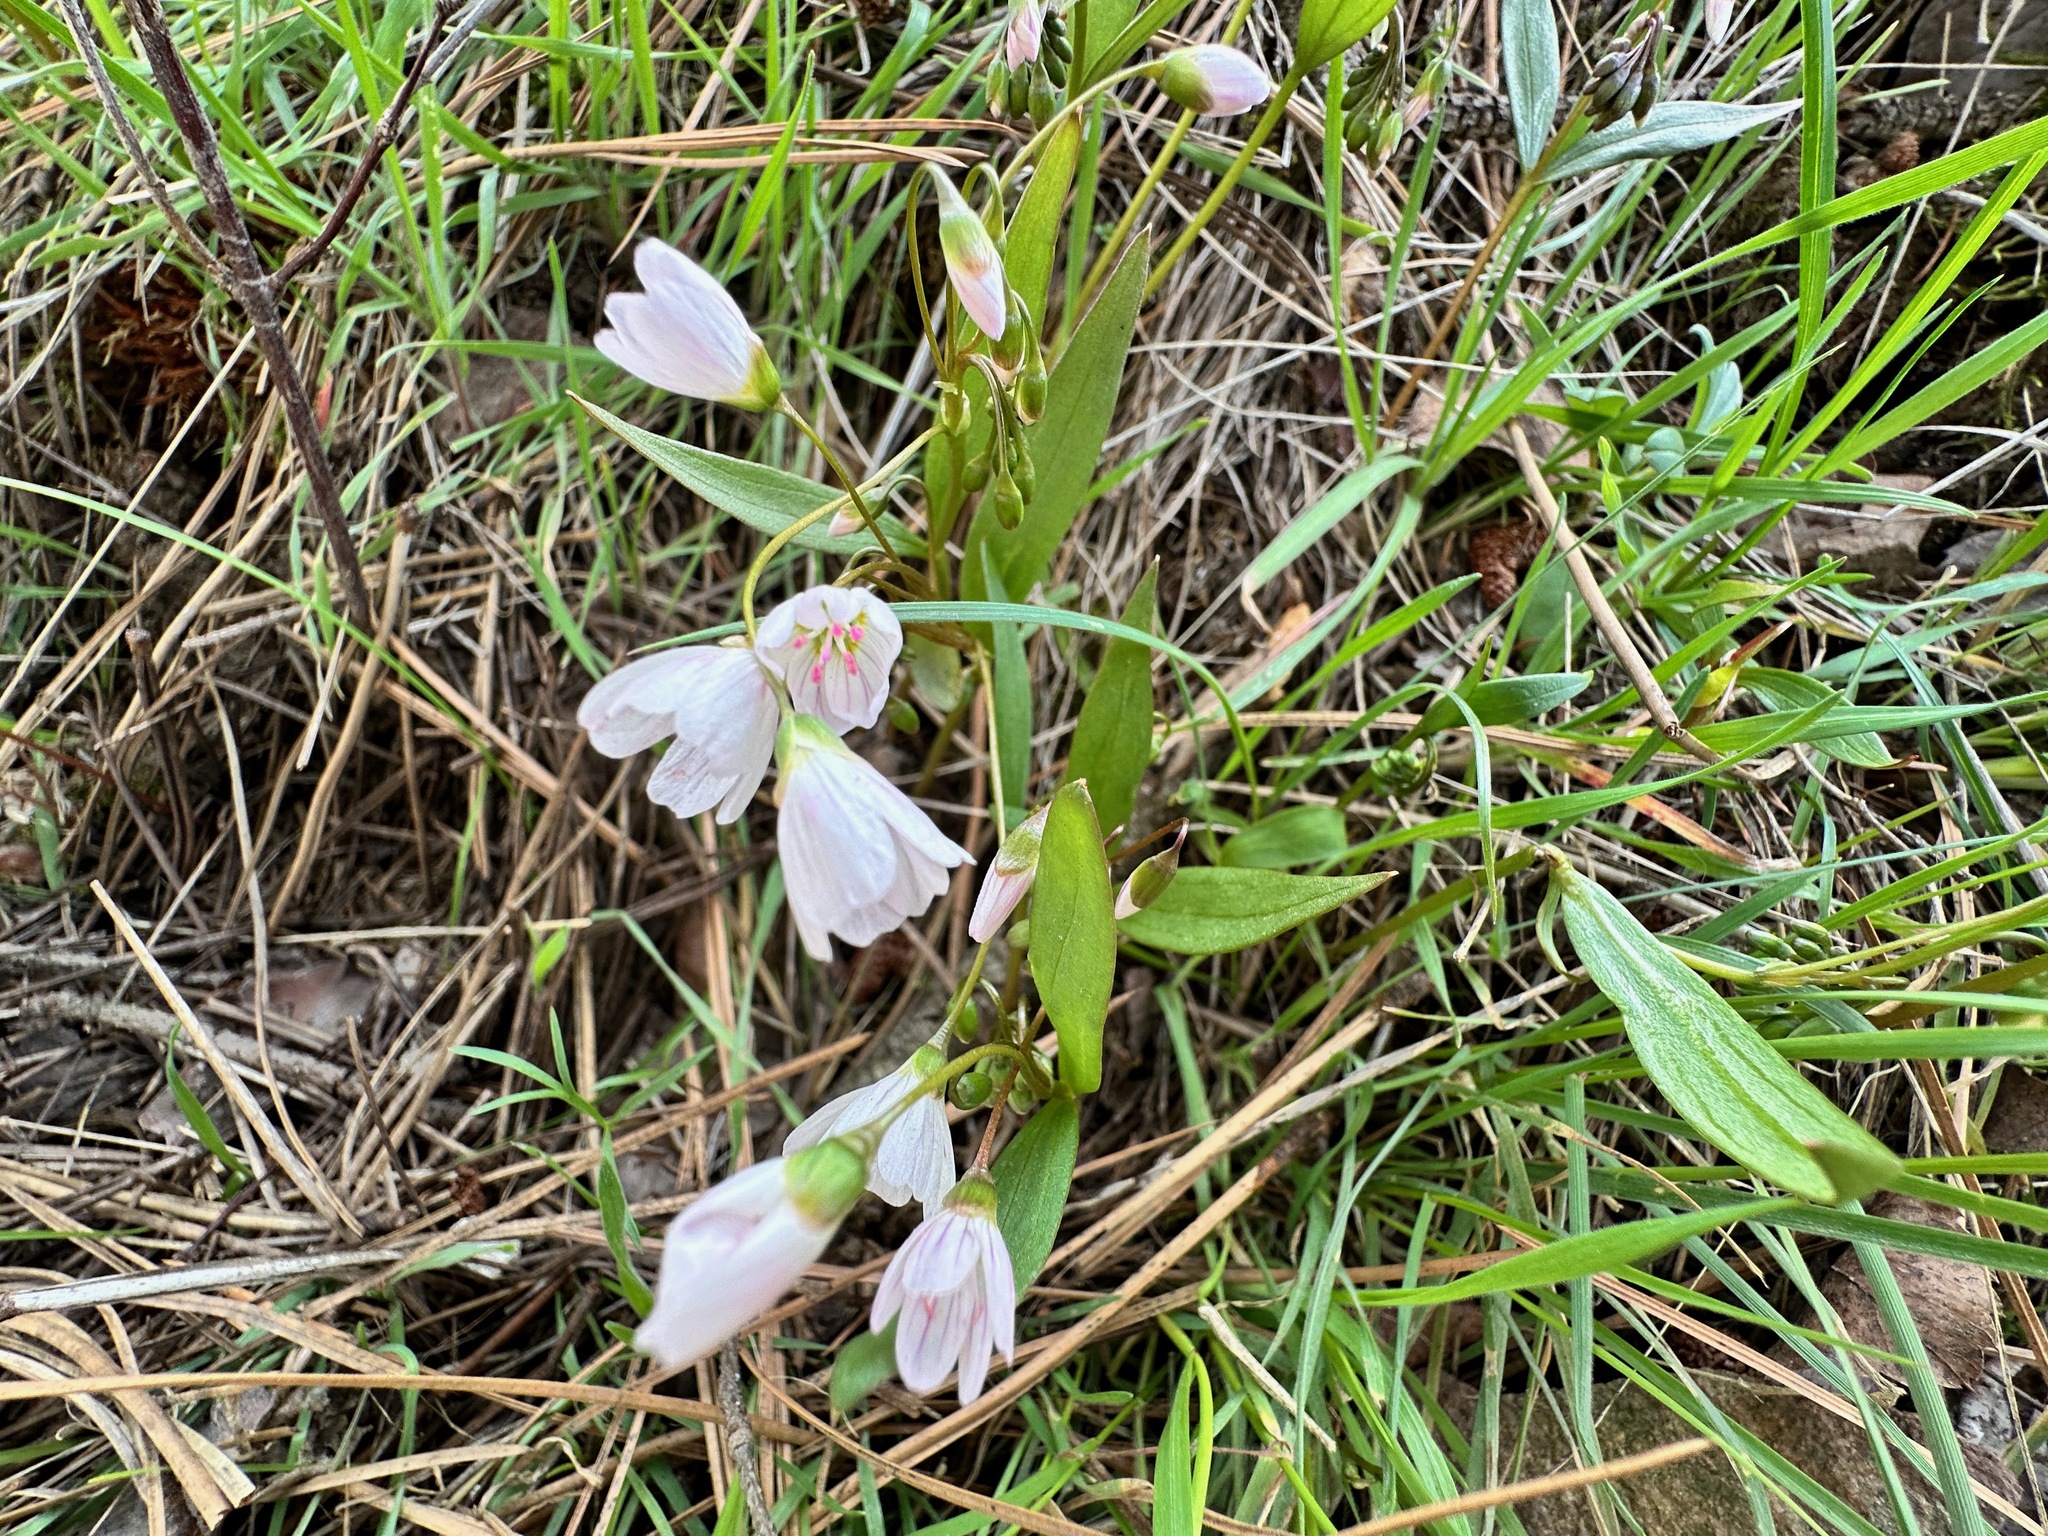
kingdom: Plantae
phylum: Tracheophyta
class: Magnoliopsida
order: Caryophyllales
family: Montiaceae
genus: Claytonia
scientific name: Claytonia lanceolata
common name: Western spring-beauty
